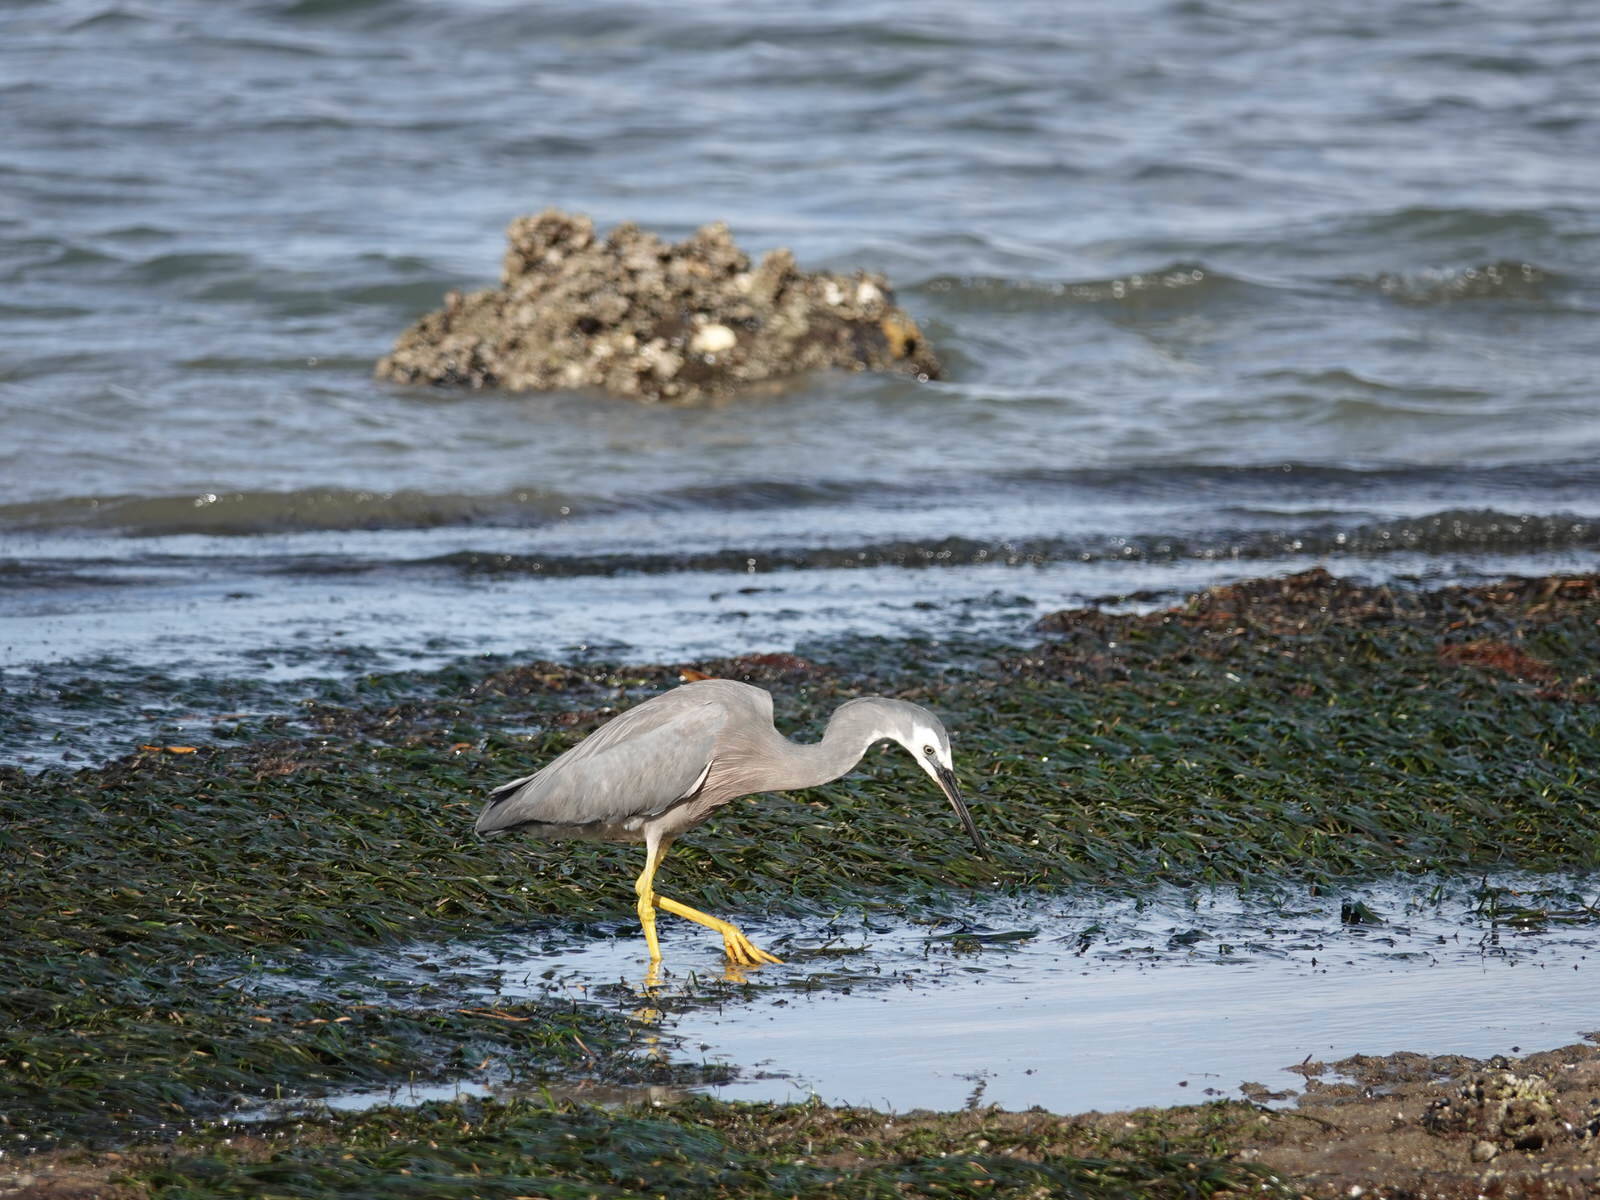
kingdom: Animalia
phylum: Chordata
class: Aves
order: Pelecaniformes
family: Ardeidae
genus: Egretta
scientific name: Egretta novaehollandiae
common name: White-faced heron
